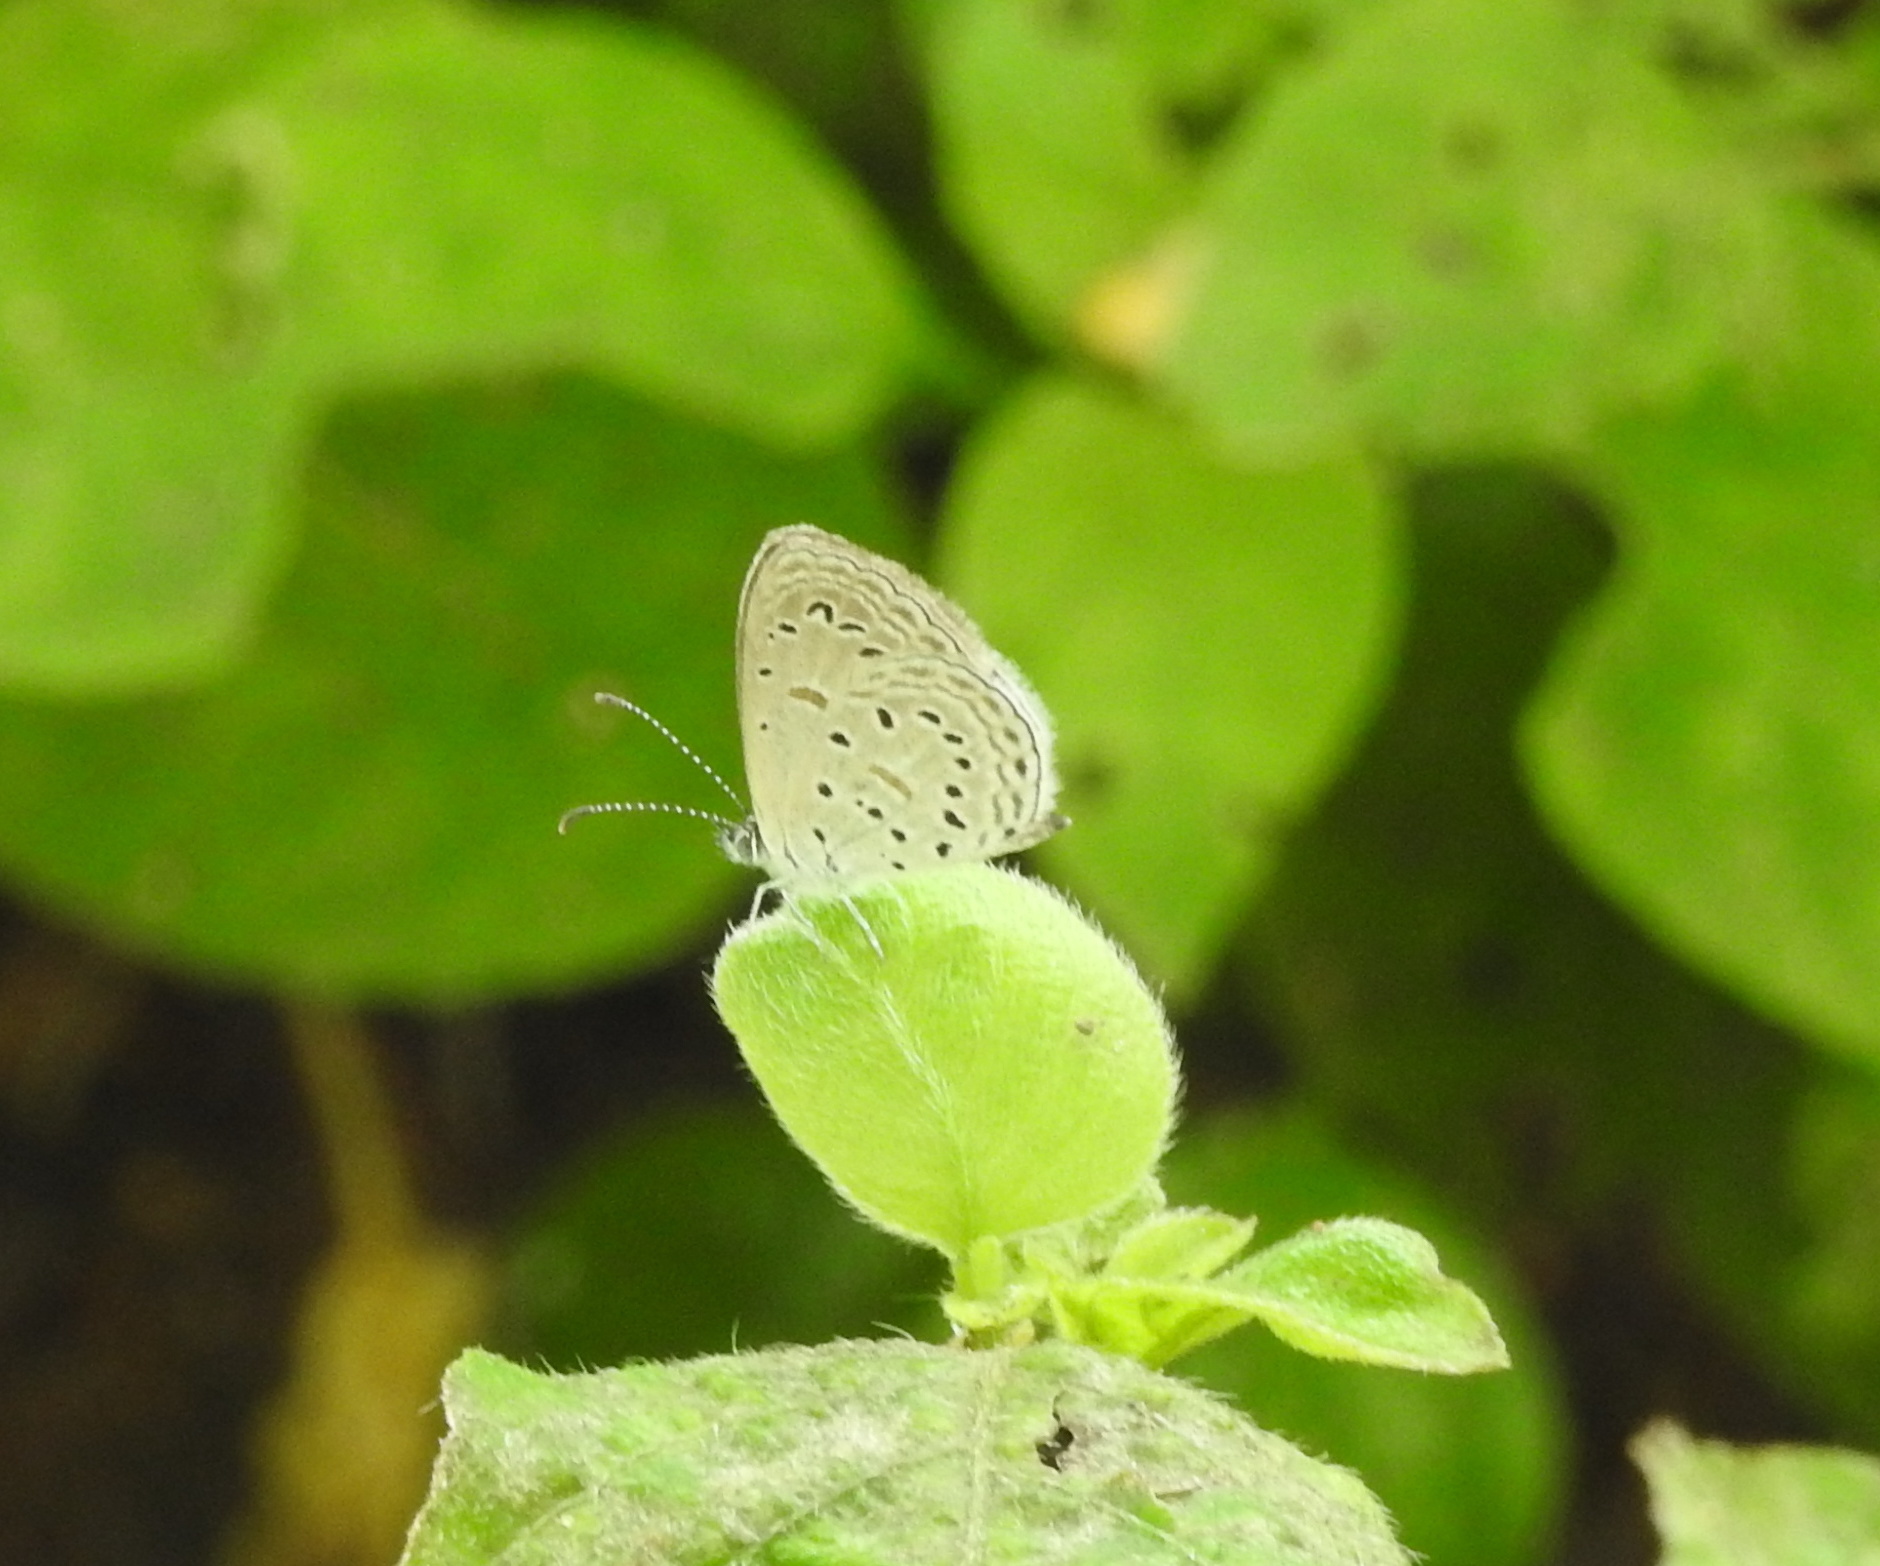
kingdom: Animalia
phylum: Arthropoda
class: Insecta
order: Lepidoptera
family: Lycaenidae
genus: Zizula
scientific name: Zizula hylax
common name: Gaika blue
